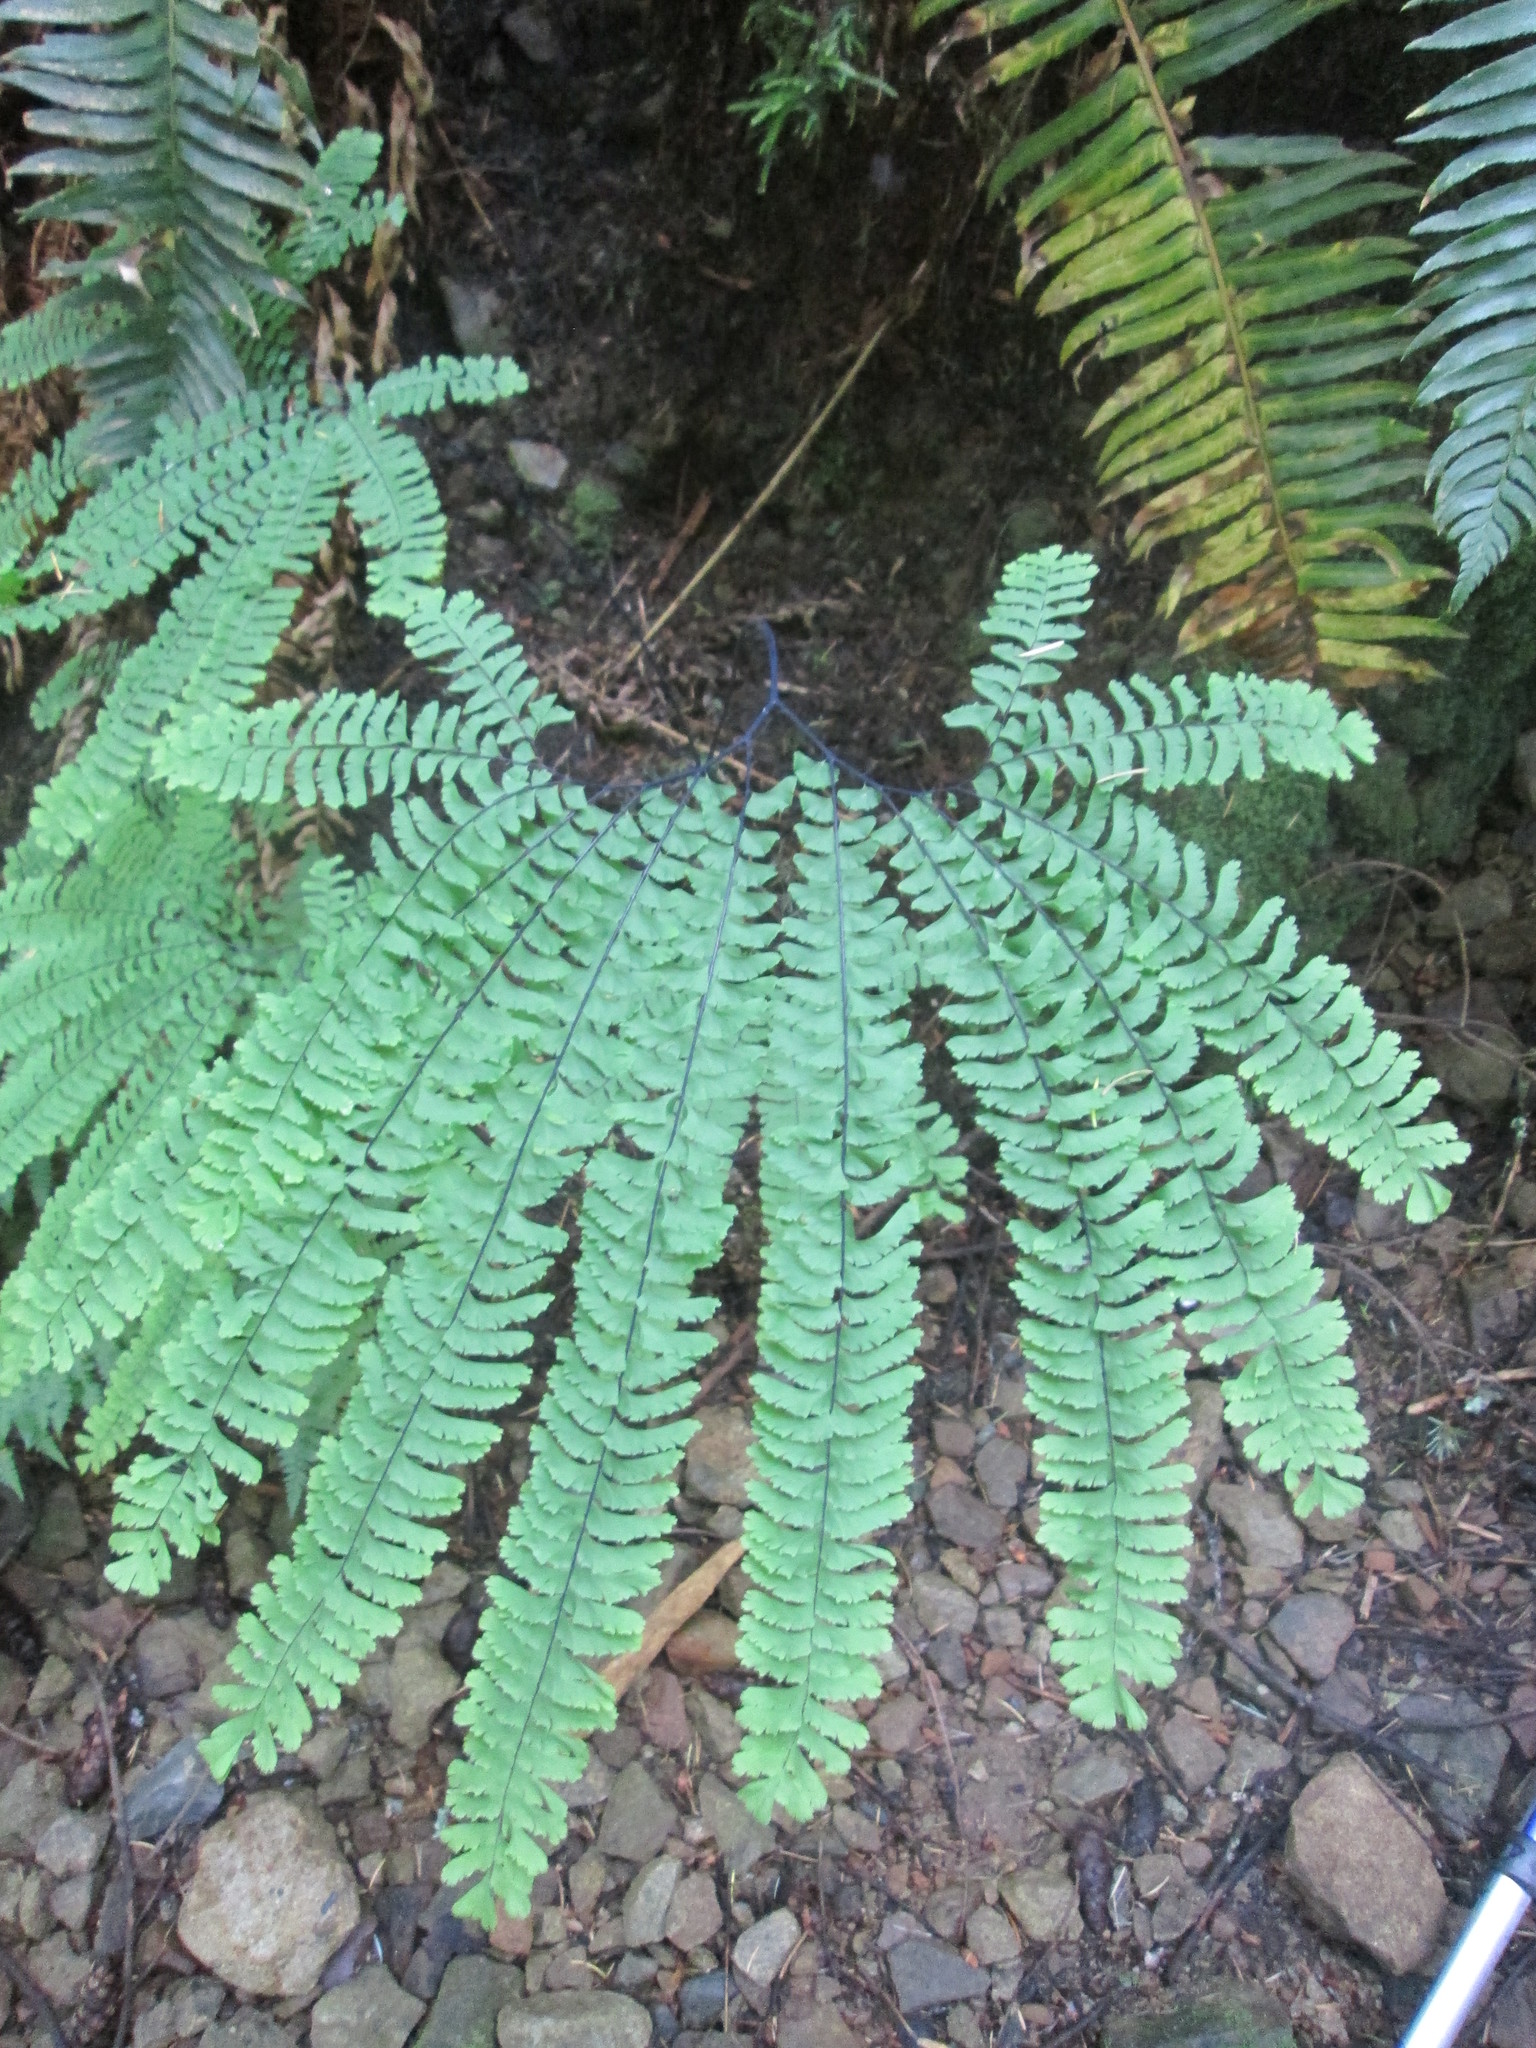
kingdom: Plantae
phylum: Tracheophyta
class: Polypodiopsida
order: Polypodiales
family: Pteridaceae
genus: Adiantum
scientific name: Adiantum aleuticum
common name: Aleutian maidenhair fern
